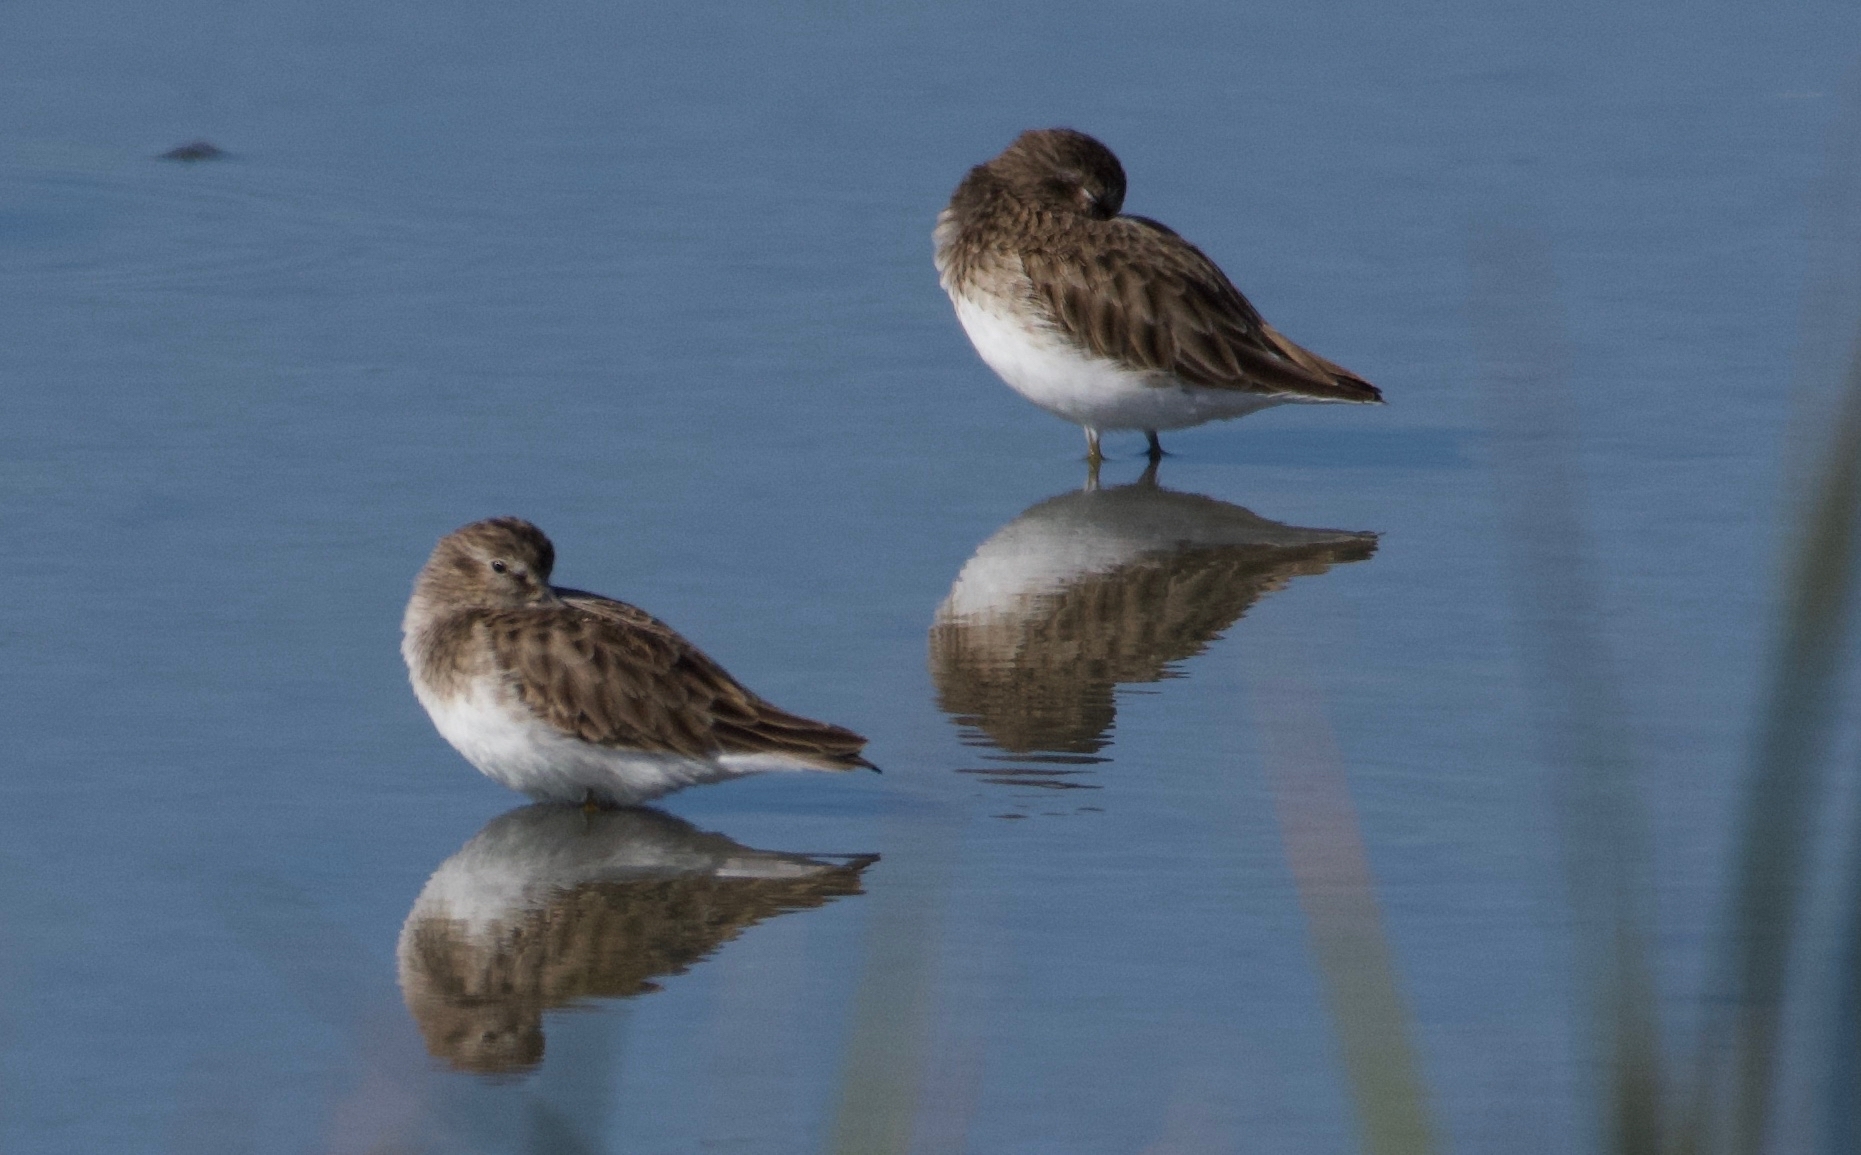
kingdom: Animalia
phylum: Chordata
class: Aves
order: Charadriiformes
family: Scolopacidae
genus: Calidris
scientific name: Calidris minutilla
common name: Least sandpiper
